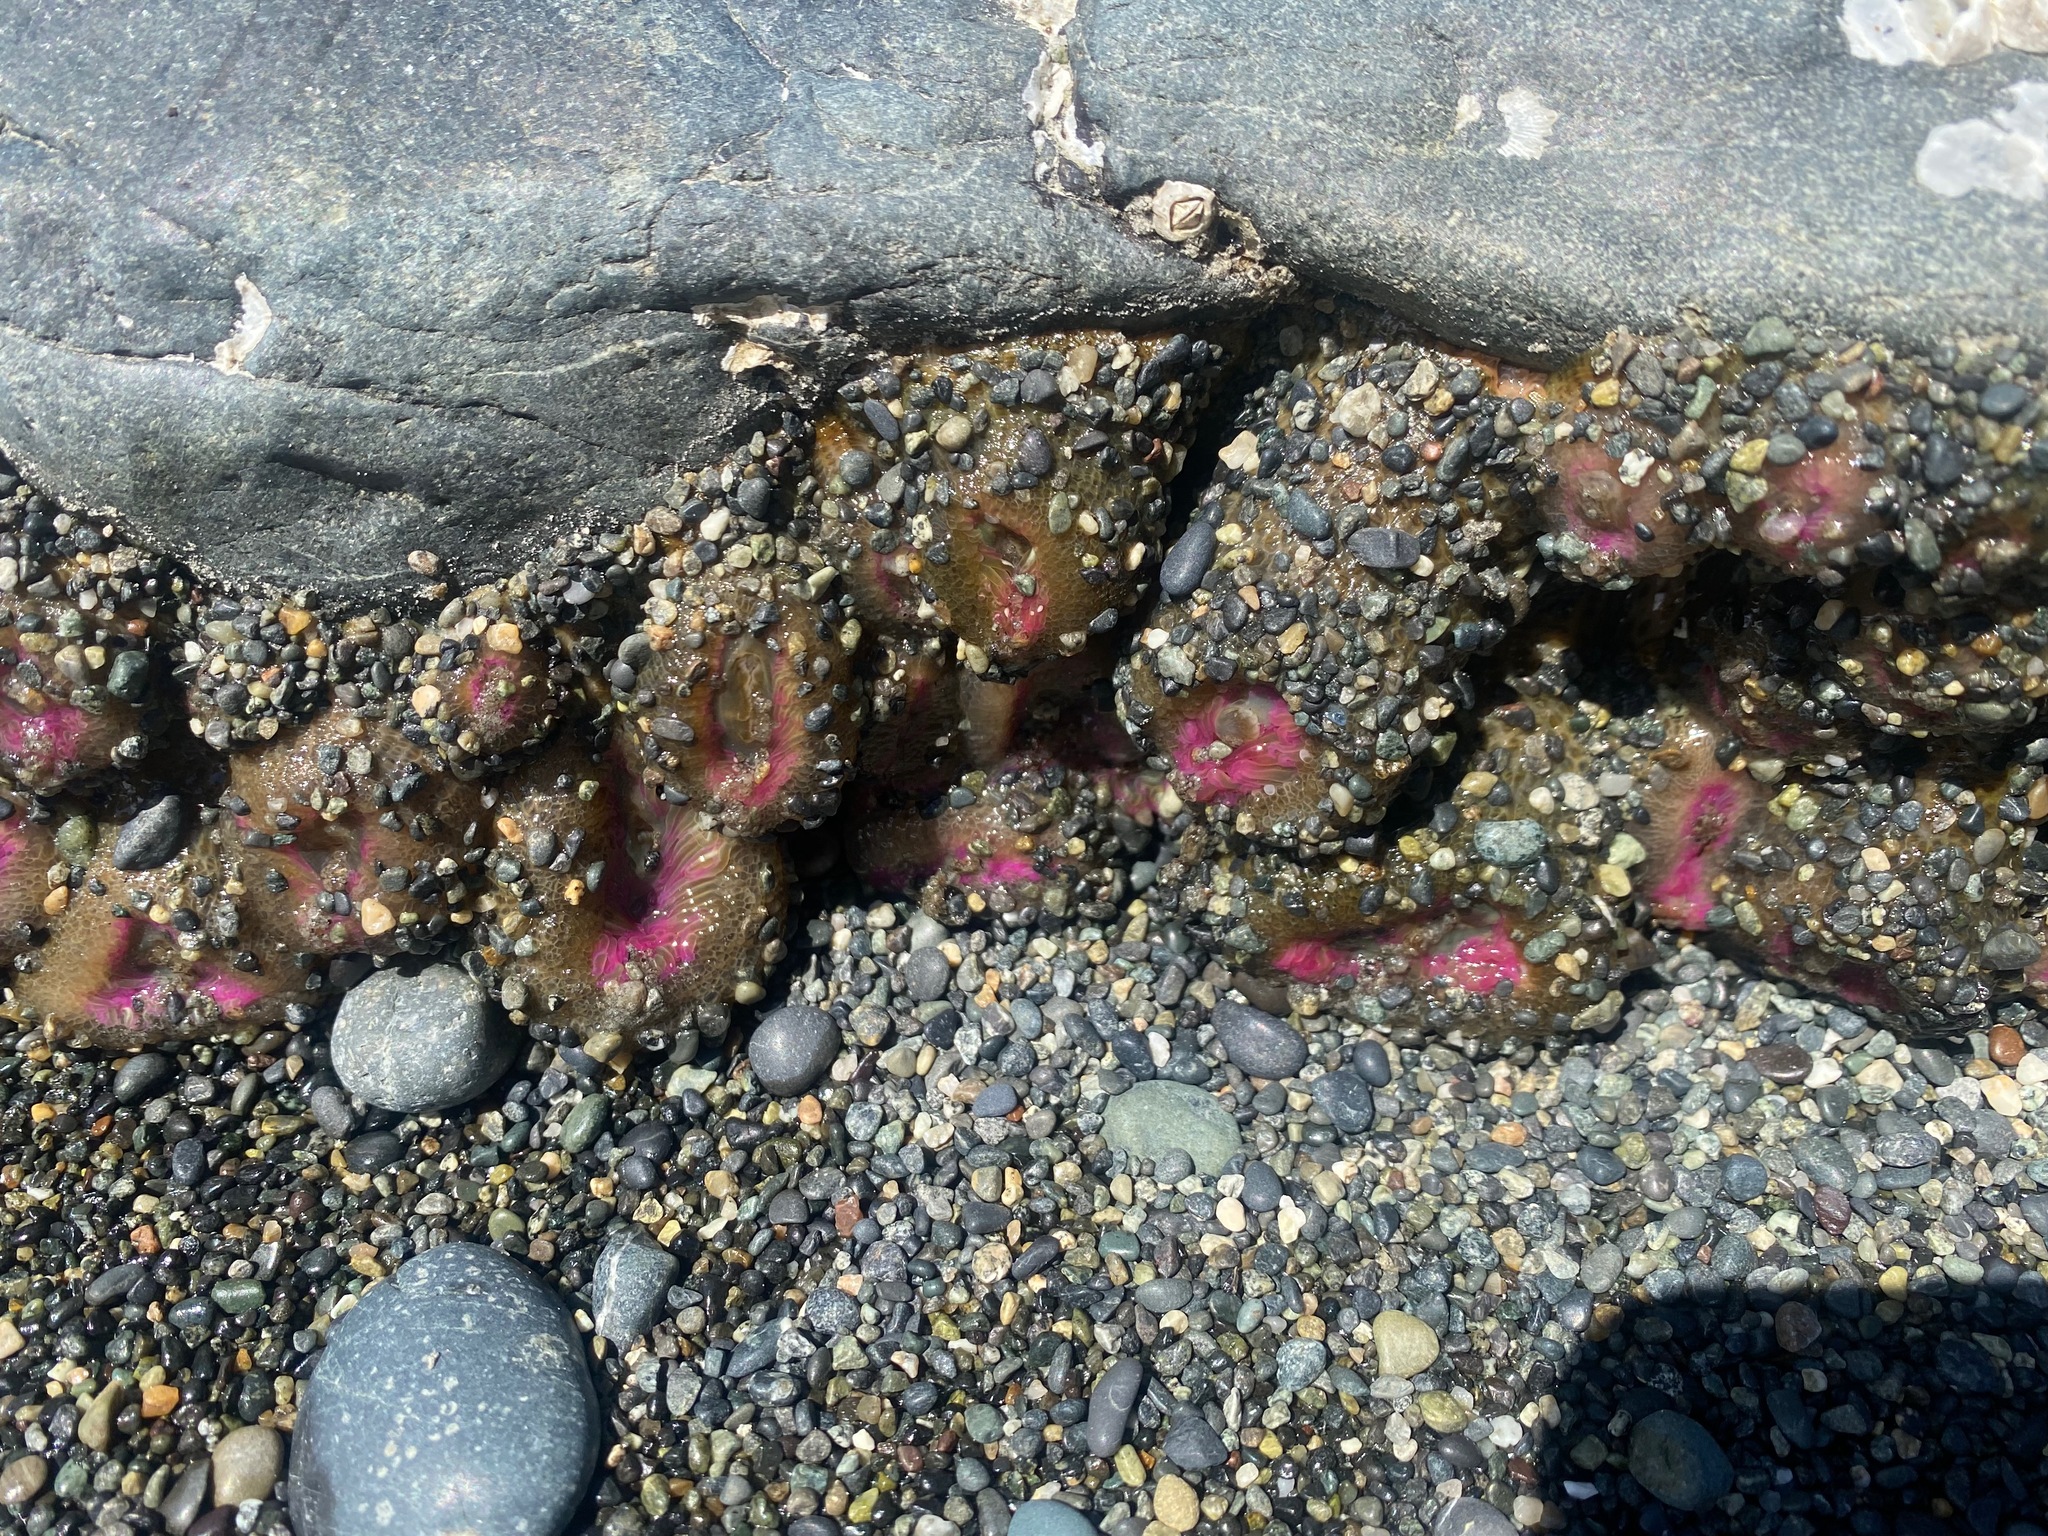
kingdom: Animalia
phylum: Cnidaria
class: Anthozoa
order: Actiniaria
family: Actiniidae
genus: Anthopleura
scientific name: Anthopleura elegantissima
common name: Clonal anemone
